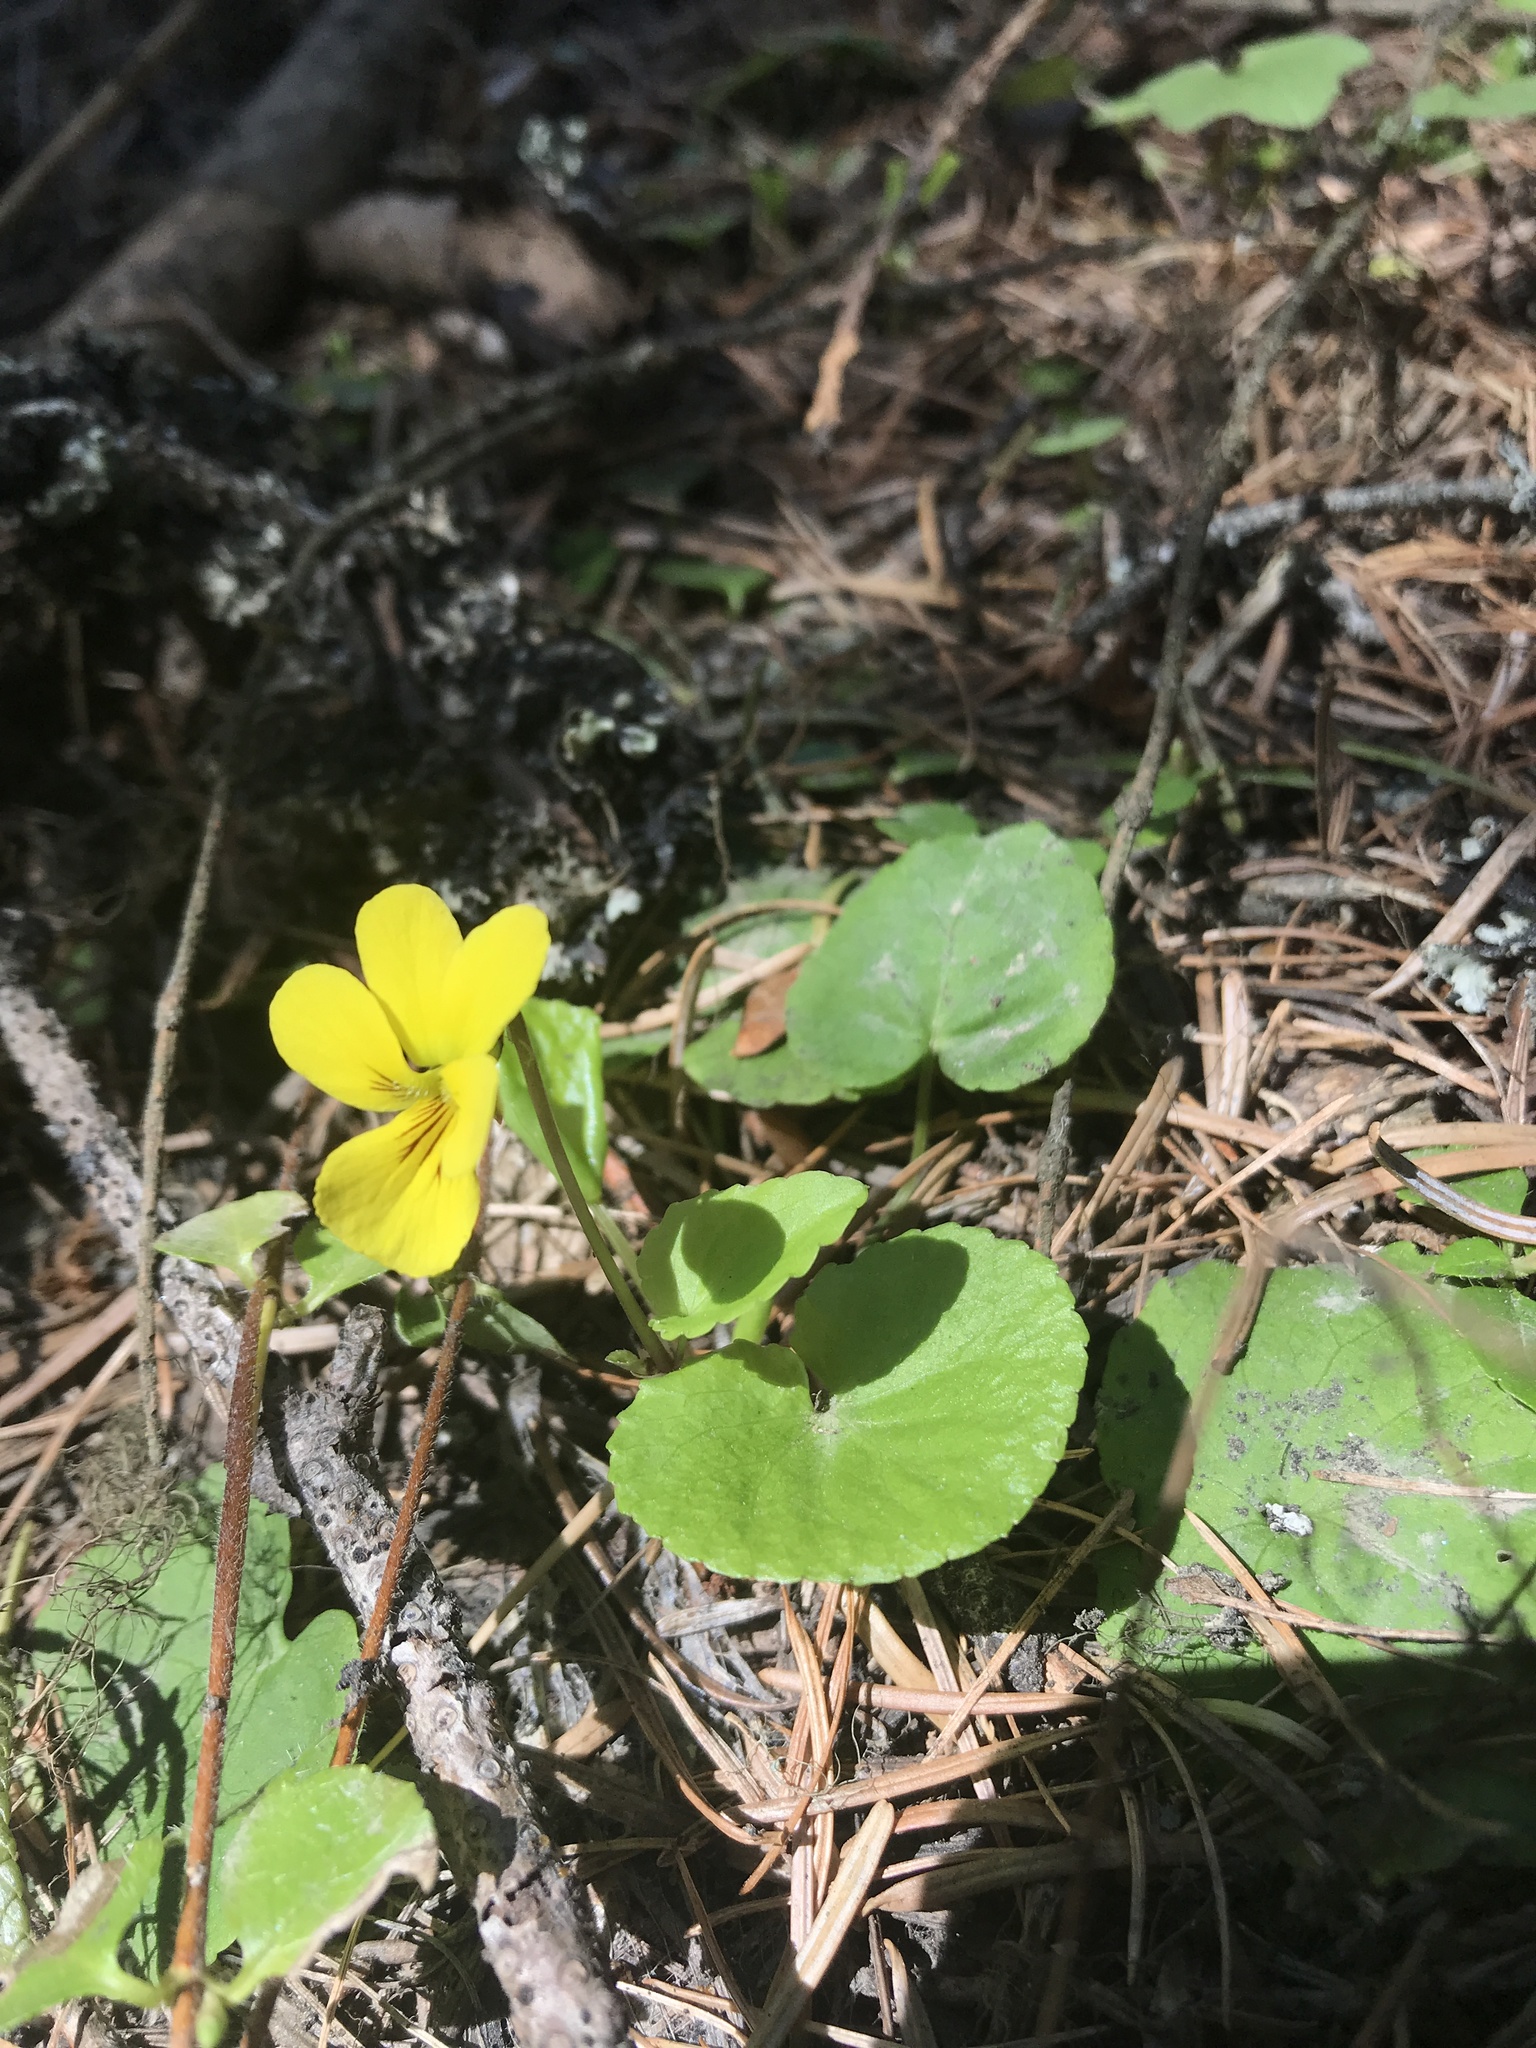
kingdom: Plantae
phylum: Tracheophyta
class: Magnoliopsida
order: Malpighiales
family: Violaceae
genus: Viola
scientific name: Viola glabella
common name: Stream violet
